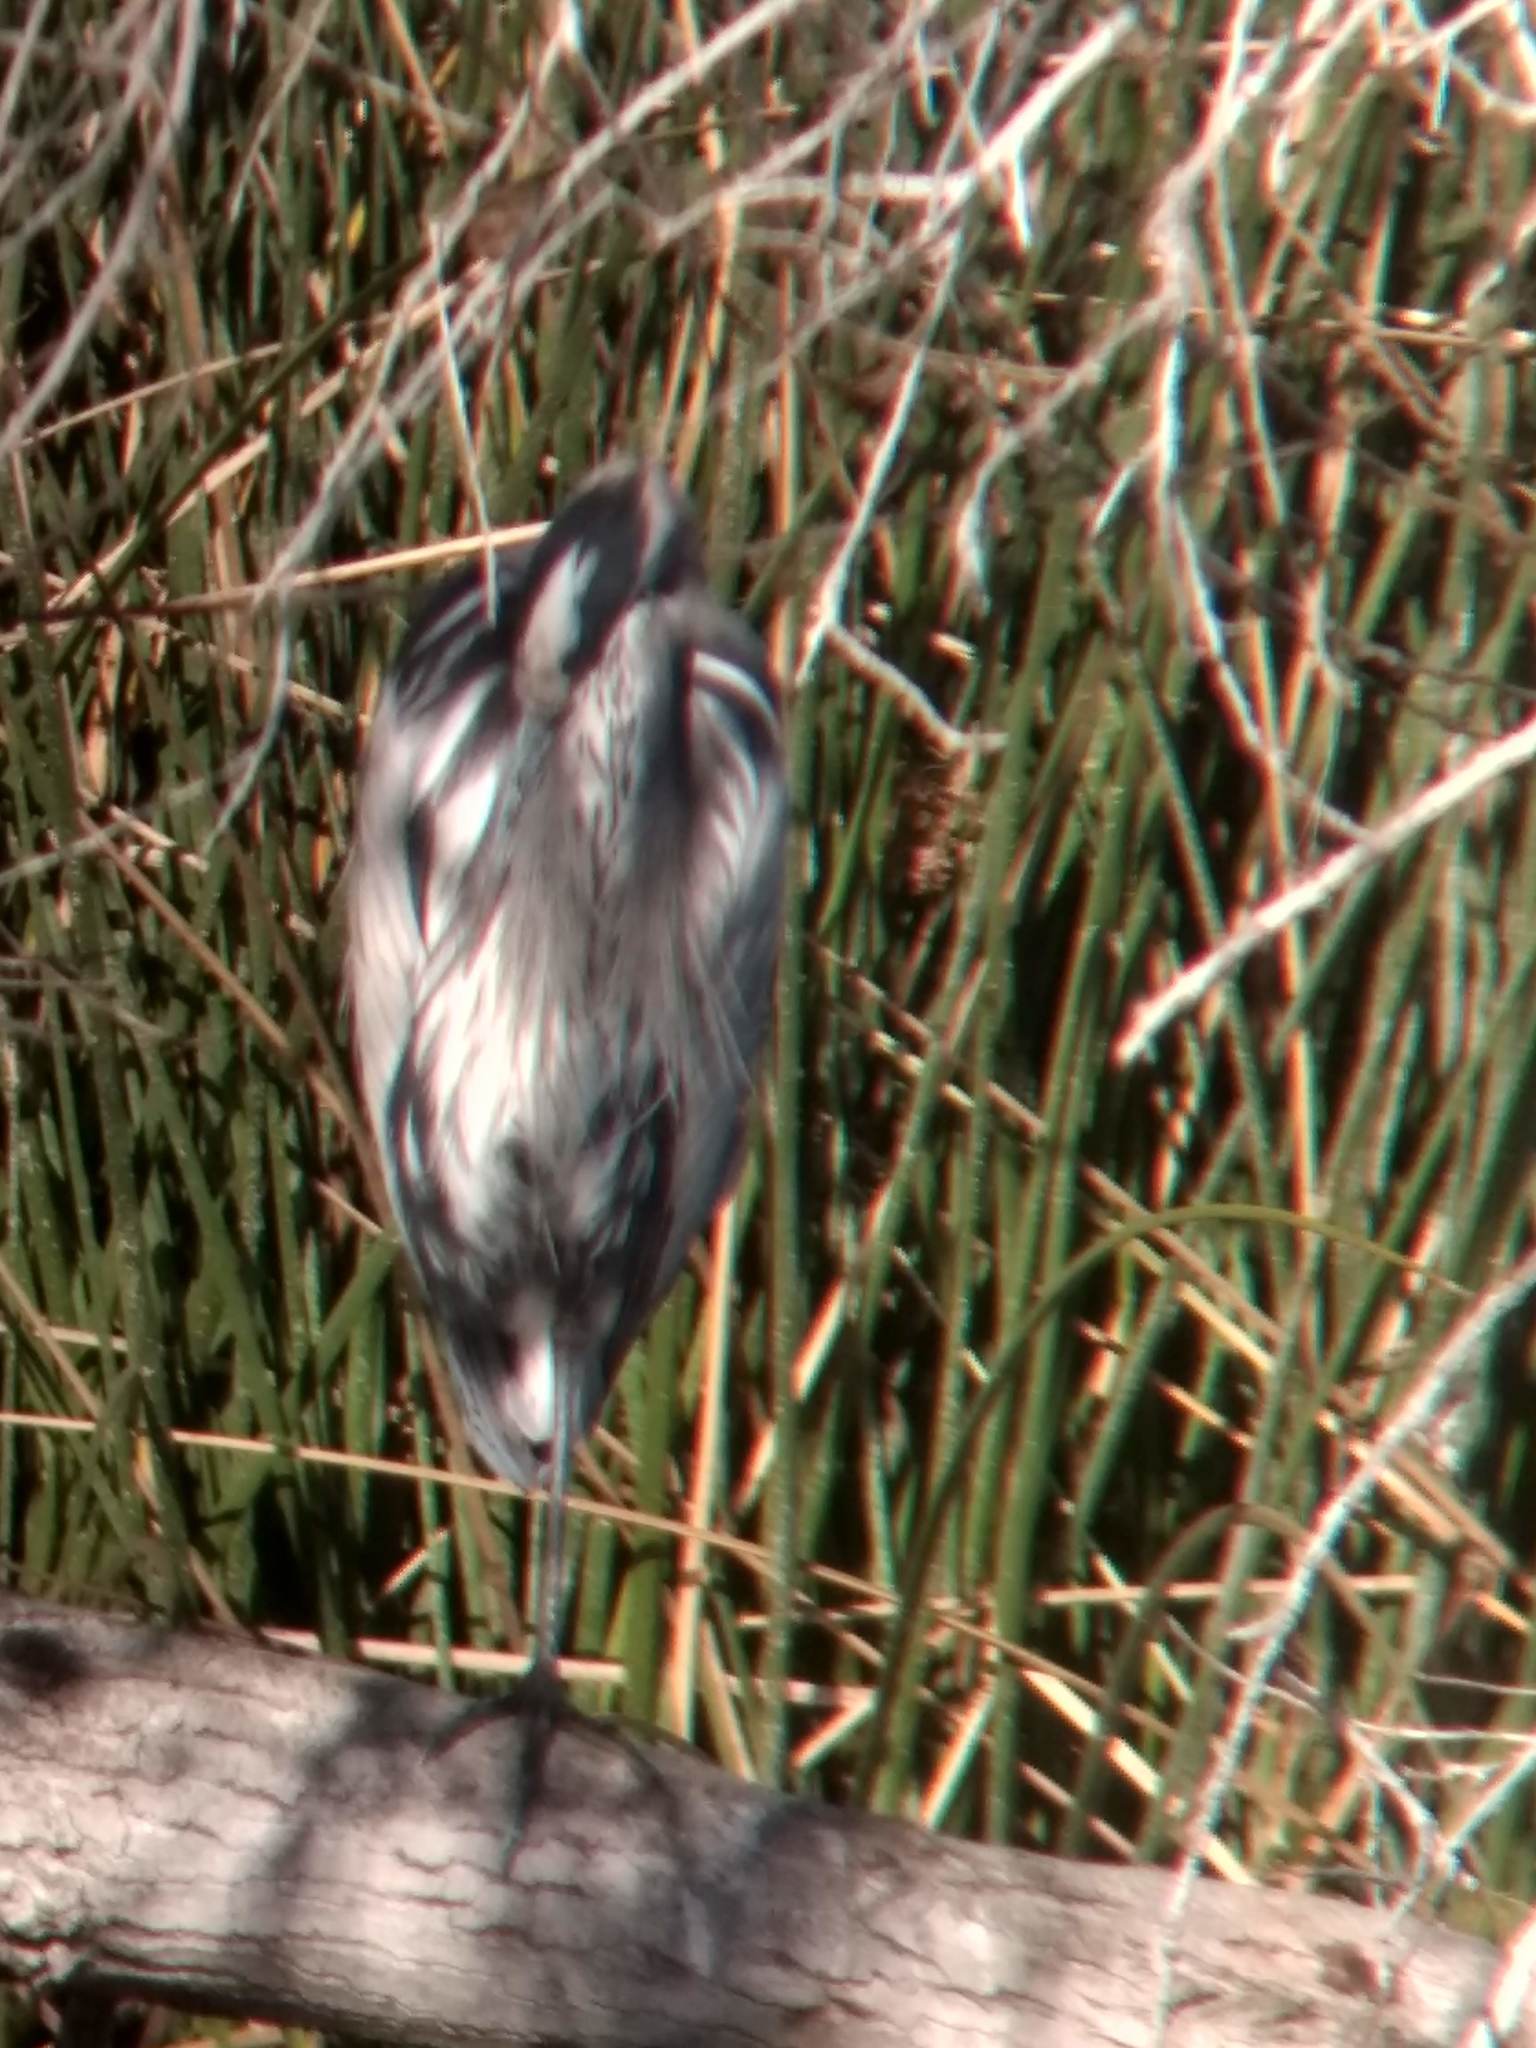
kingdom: Animalia
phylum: Chordata
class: Aves
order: Pelecaniformes
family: Ardeidae
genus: Ardea
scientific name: Ardea herodias
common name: Great blue heron
